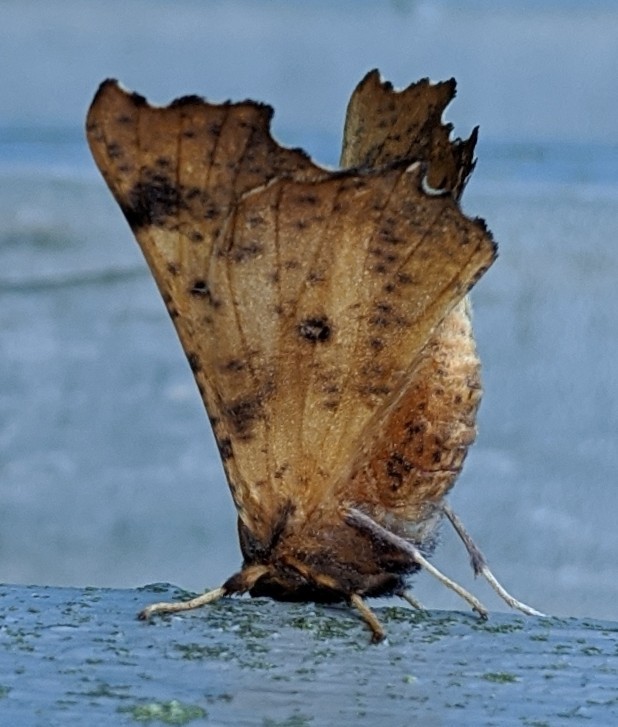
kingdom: Animalia
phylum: Arthropoda
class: Insecta
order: Lepidoptera
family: Geometridae
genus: Ennomos
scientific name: Ennomos magnaria
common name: Maple spanworm
